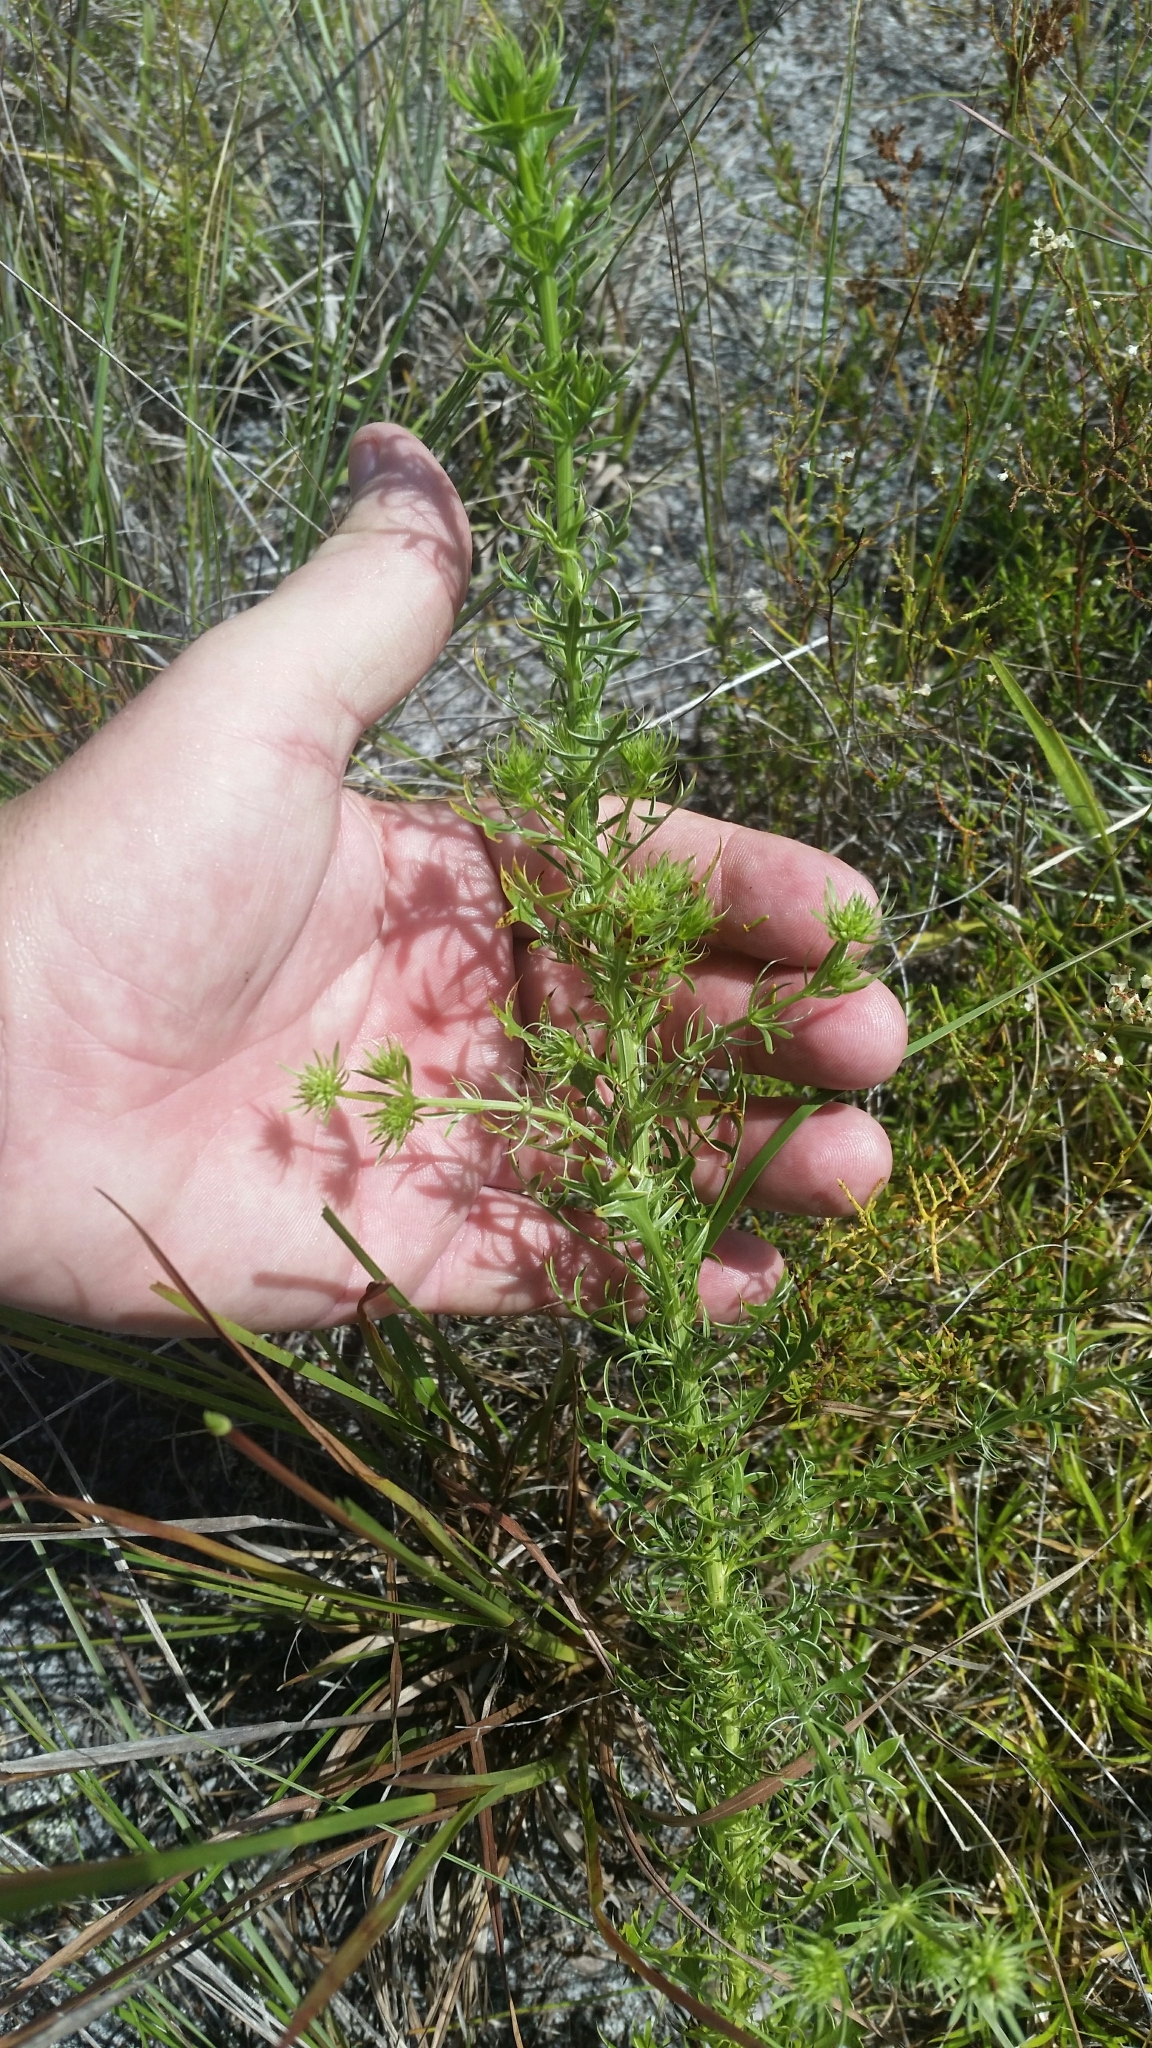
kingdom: Plantae
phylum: Tracheophyta
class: Magnoliopsida
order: Apiales
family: Apiaceae
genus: Eryngium
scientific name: Eryngium aromaticum
